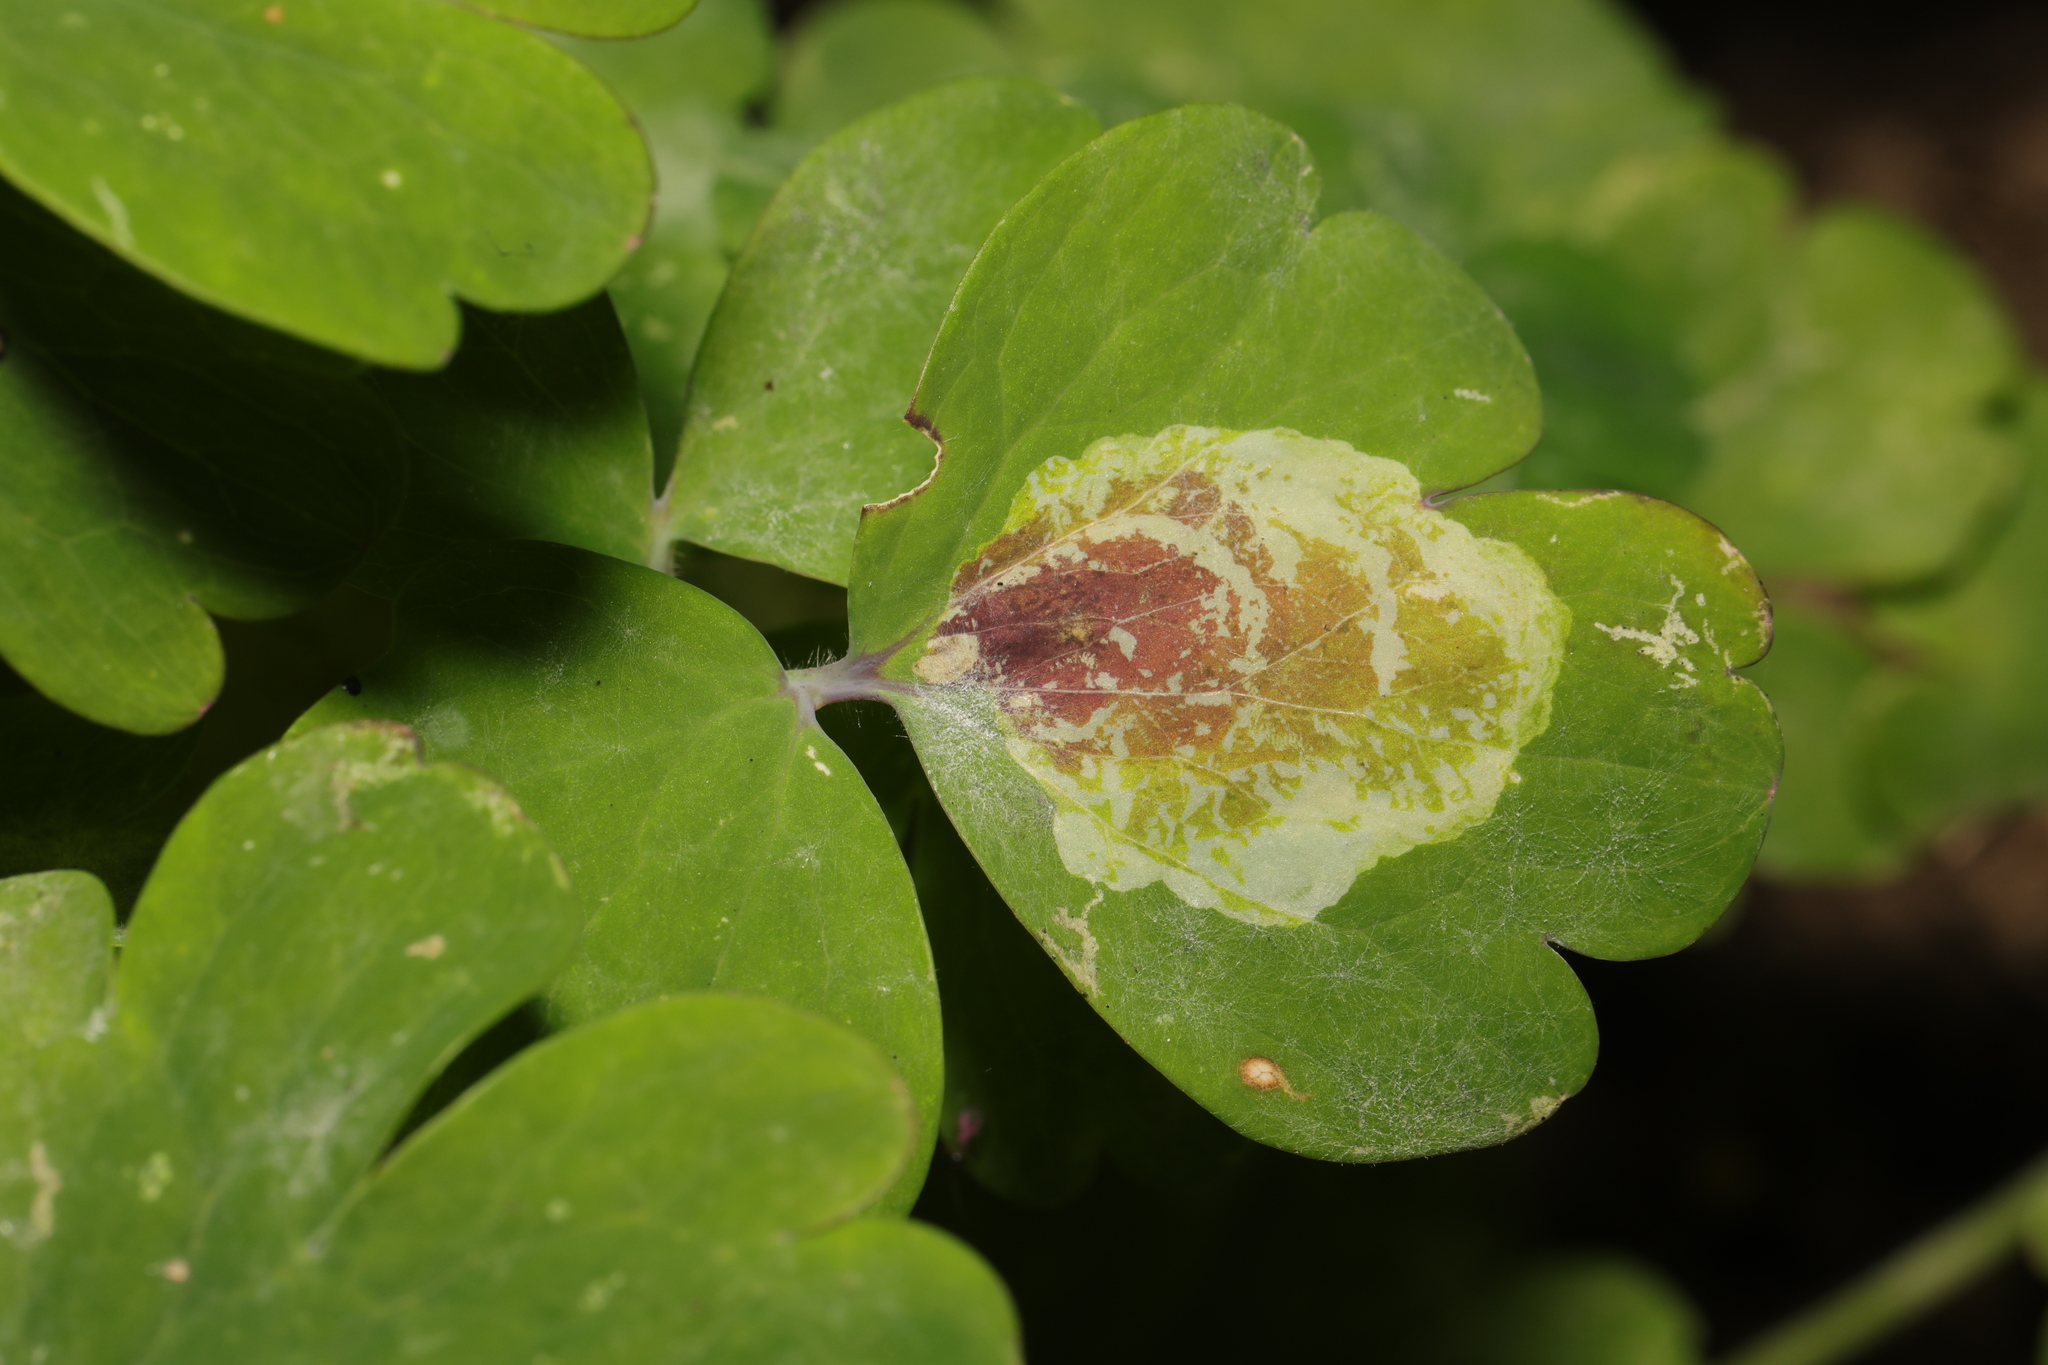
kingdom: Animalia
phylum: Arthropoda
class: Insecta
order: Diptera
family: Agromyzidae
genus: Phytomyza
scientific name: Phytomyza aquilegiae
